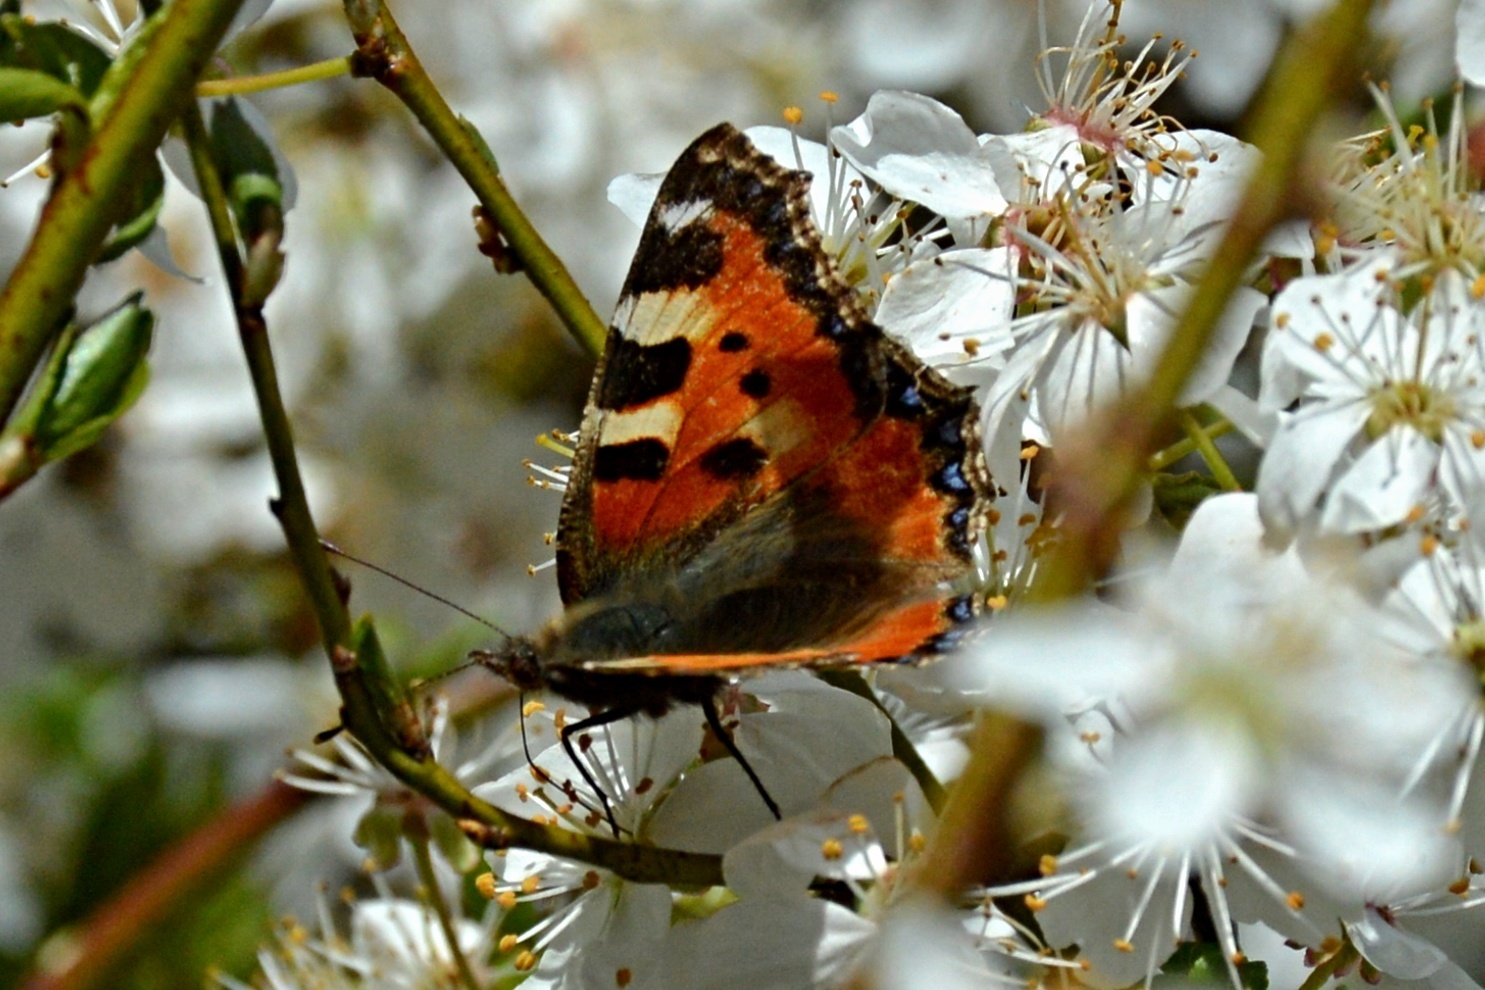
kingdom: Animalia
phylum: Arthropoda
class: Insecta
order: Lepidoptera
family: Nymphalidae
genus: Aglais
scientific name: Aglais urticae
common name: Small tortoiseshell
